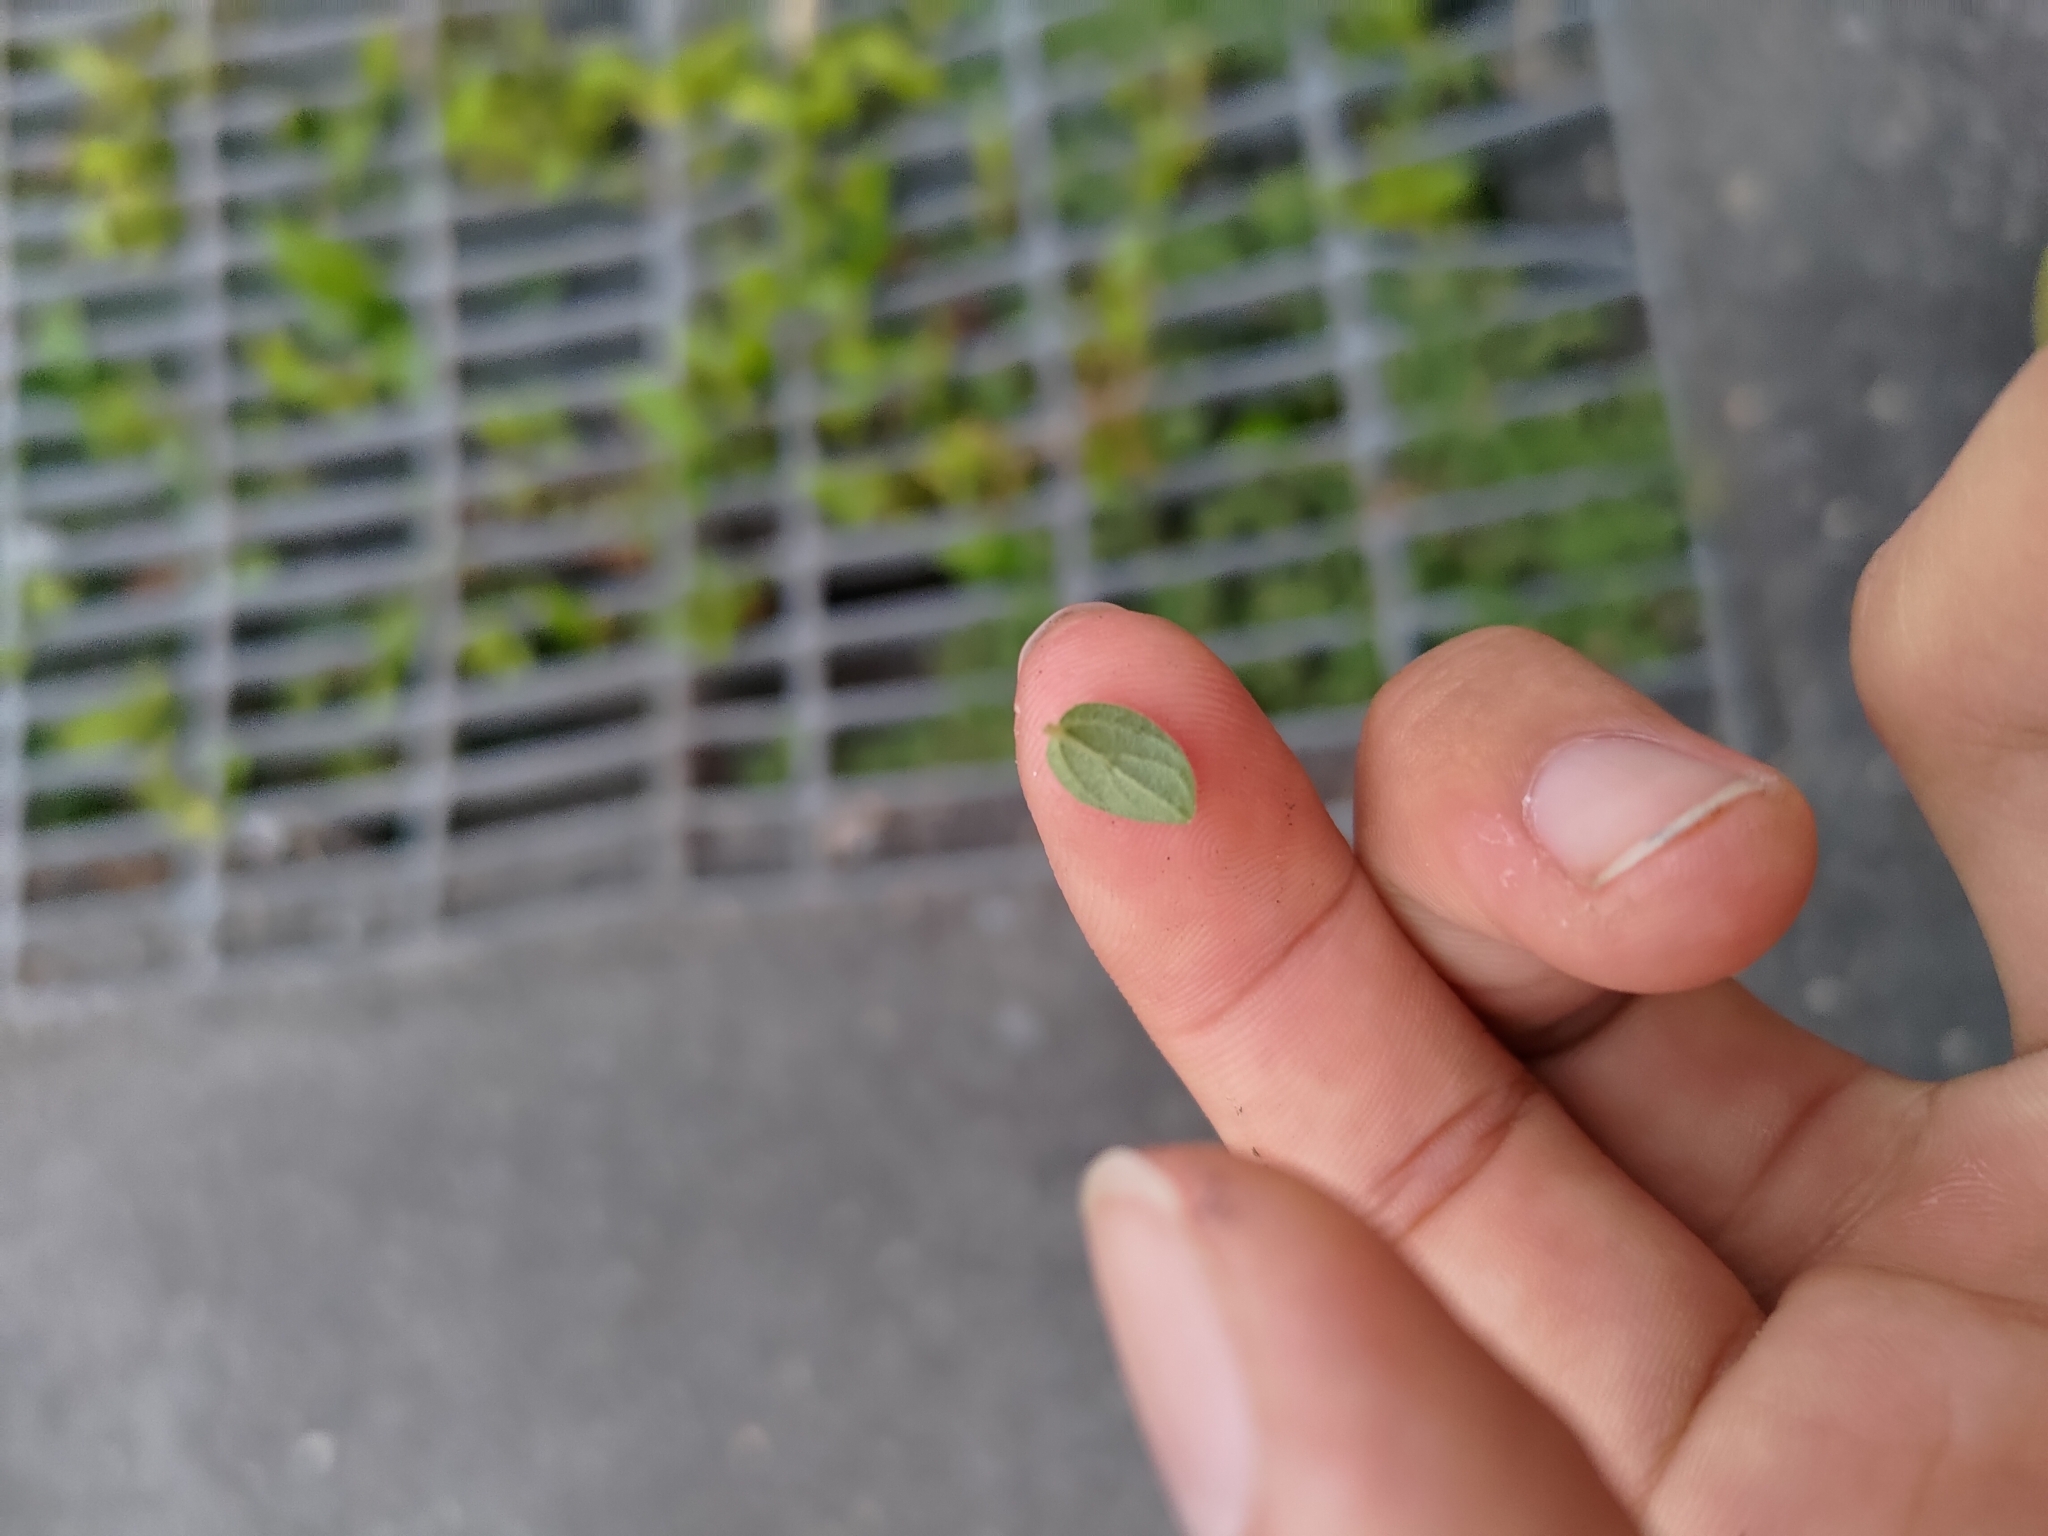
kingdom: Plantae
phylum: Tracheophyta
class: Magnoliopsida
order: Rosales
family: Urticaceae
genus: Pouzolzia
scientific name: Pouzolzia zeylanica
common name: Graceful pouzolzsbush
